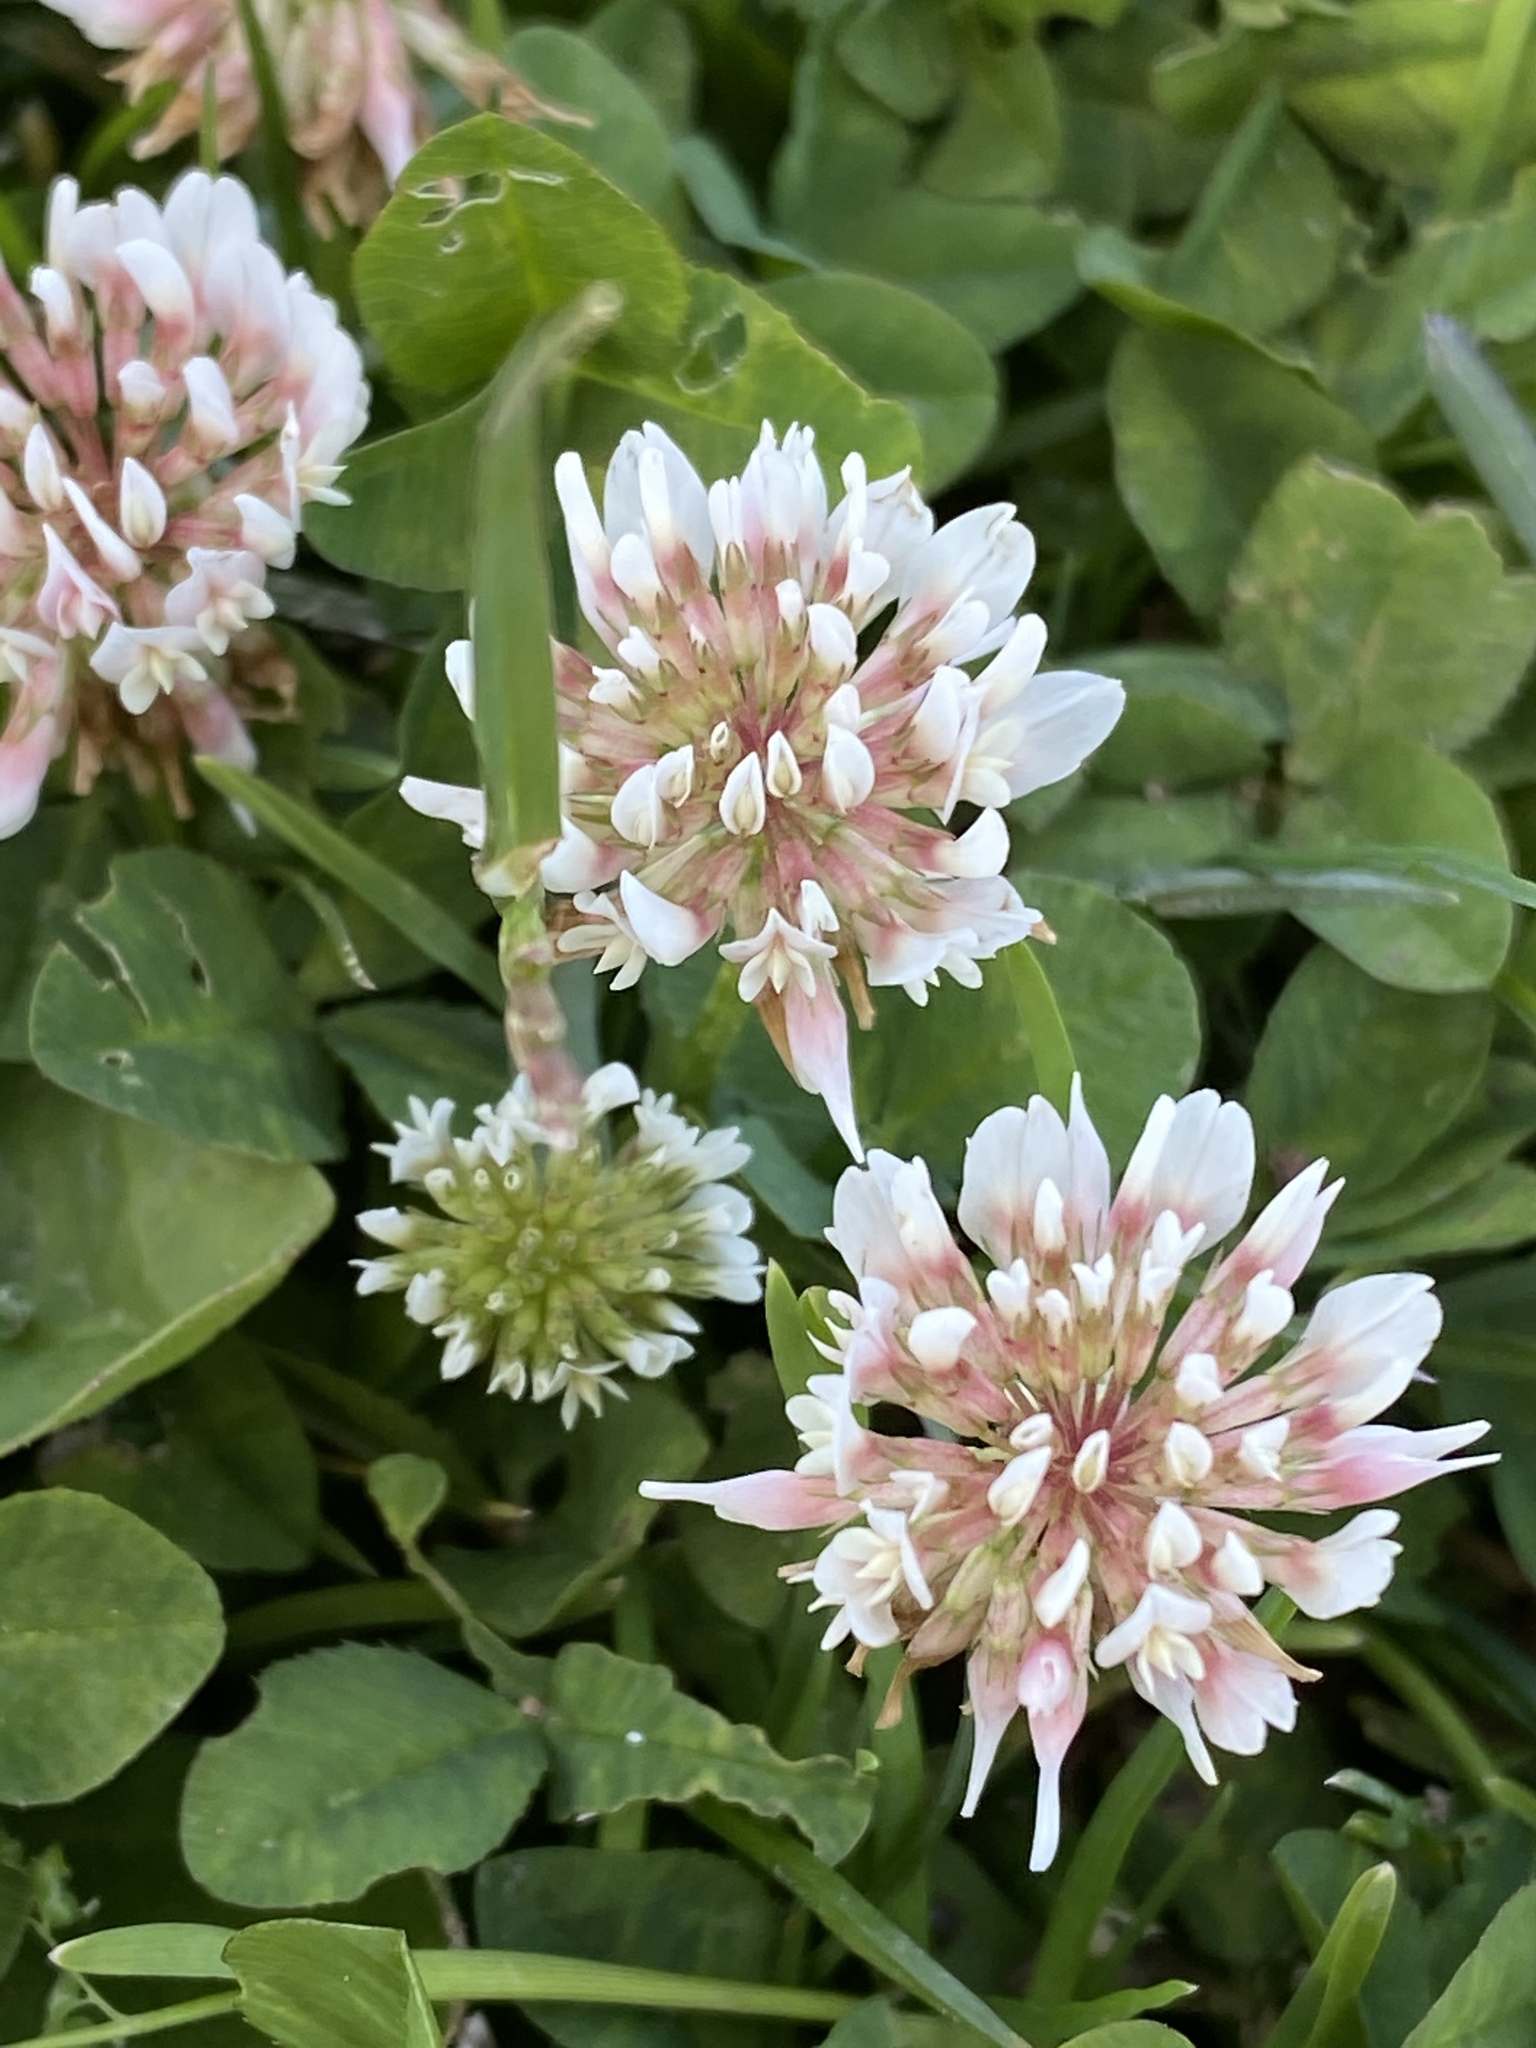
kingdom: Plantae
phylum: Tracheophyta
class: Magnoliopsida
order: Fabales
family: Fabaceae
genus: Trifolium
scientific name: Trifolium repens
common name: White clover
